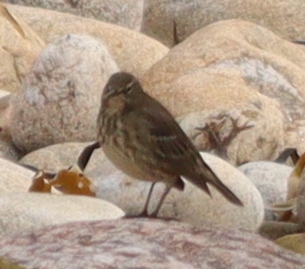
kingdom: Animalia
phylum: Chordata
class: Aves
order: Passeriformes
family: Motacillidae
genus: Anthus
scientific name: Anthus petrosus
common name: Eurasian rock pipit
